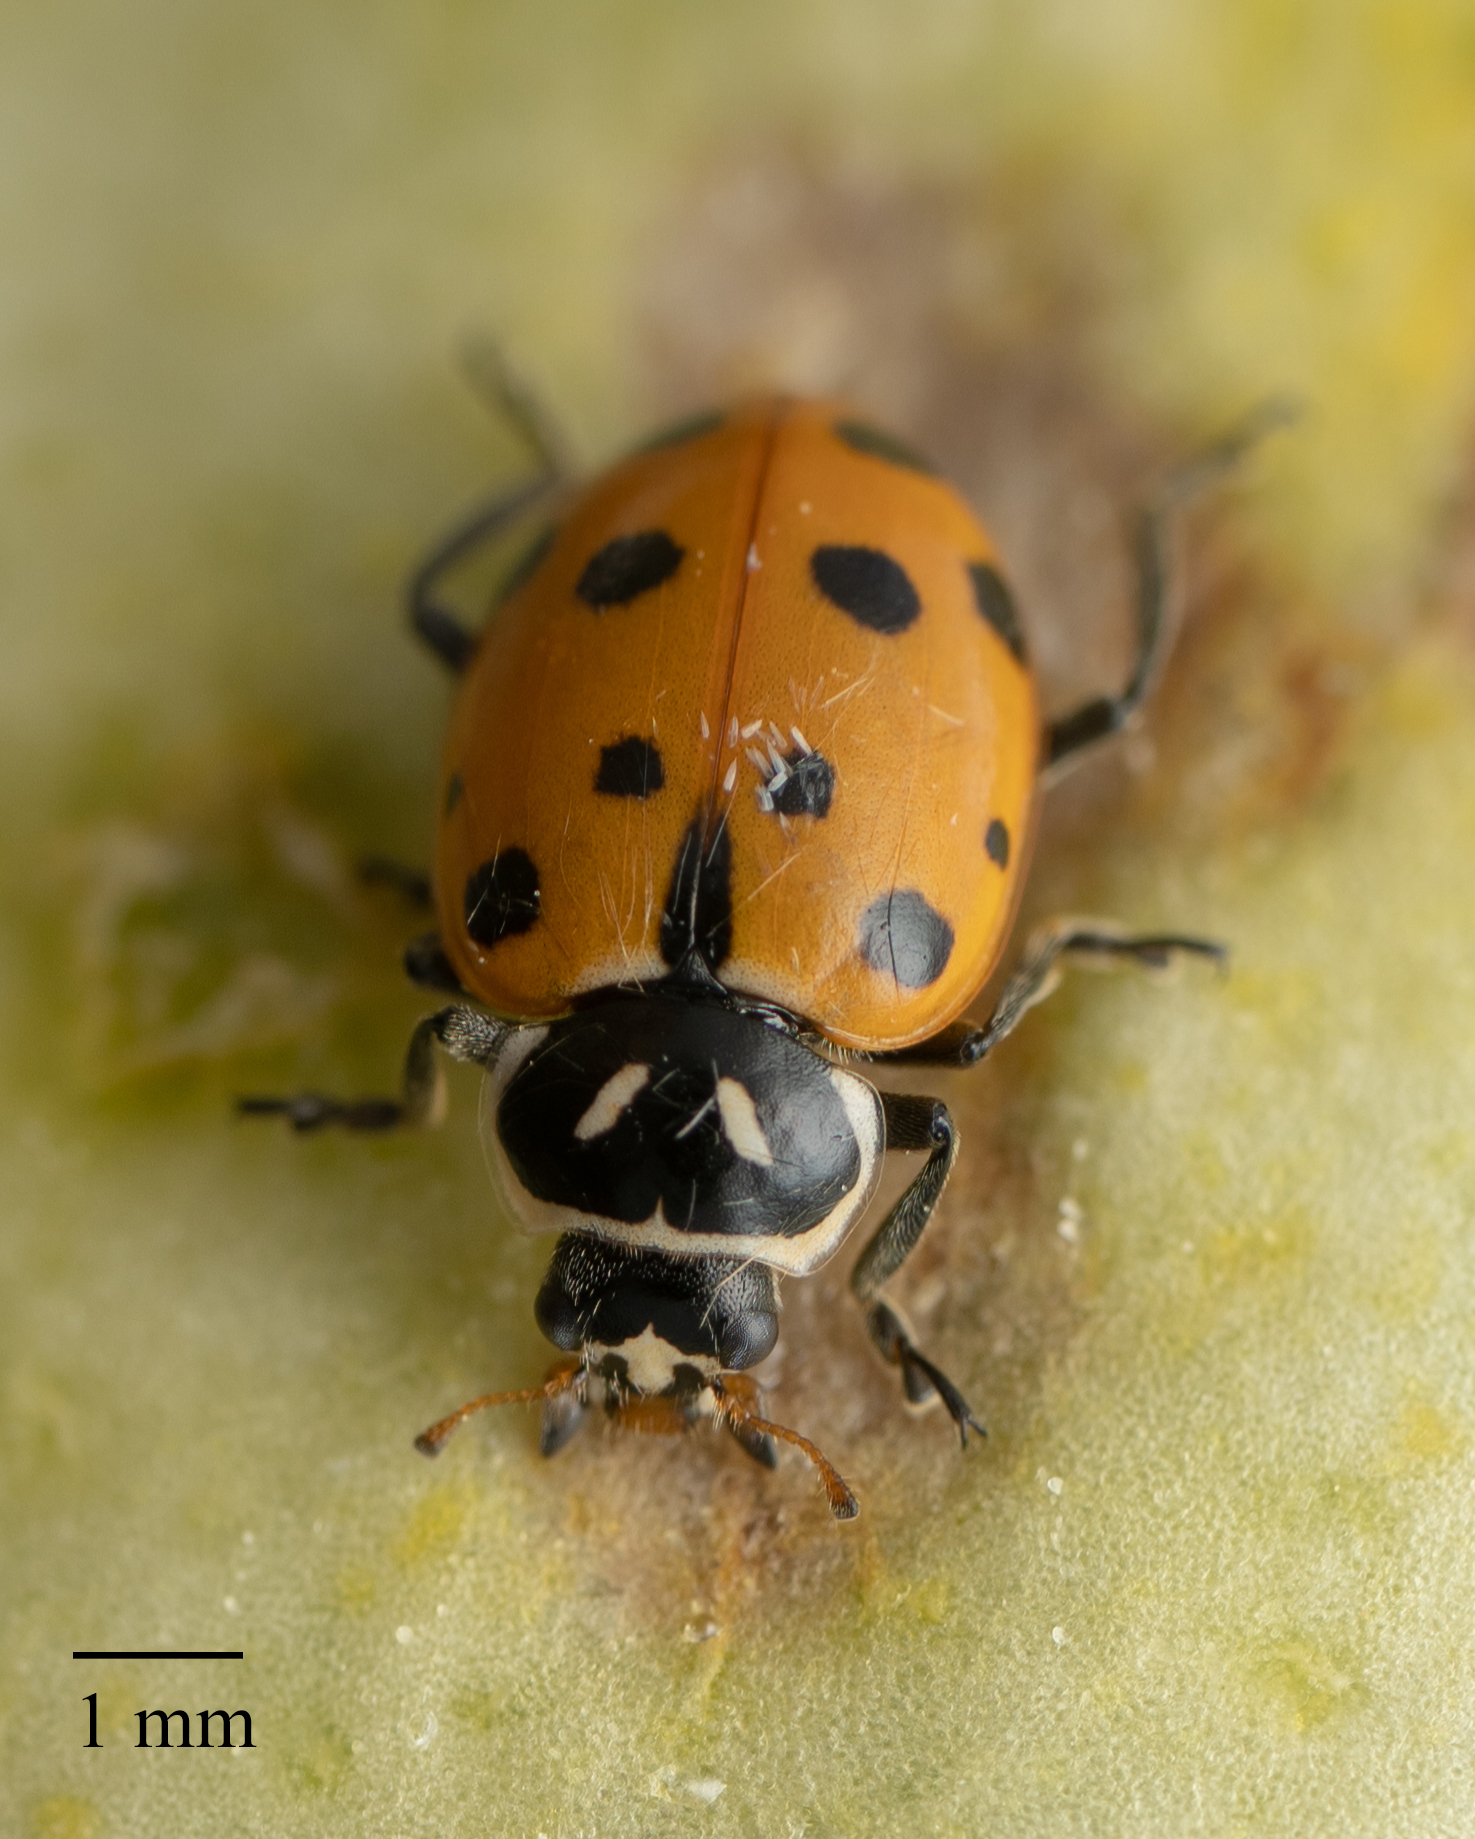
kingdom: Animalia
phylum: Arthropoda
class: Insecta
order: Coleoptera
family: Coccinellidae
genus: Hippodamia
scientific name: Hippodamia convergens
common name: Convergent lady beetle
